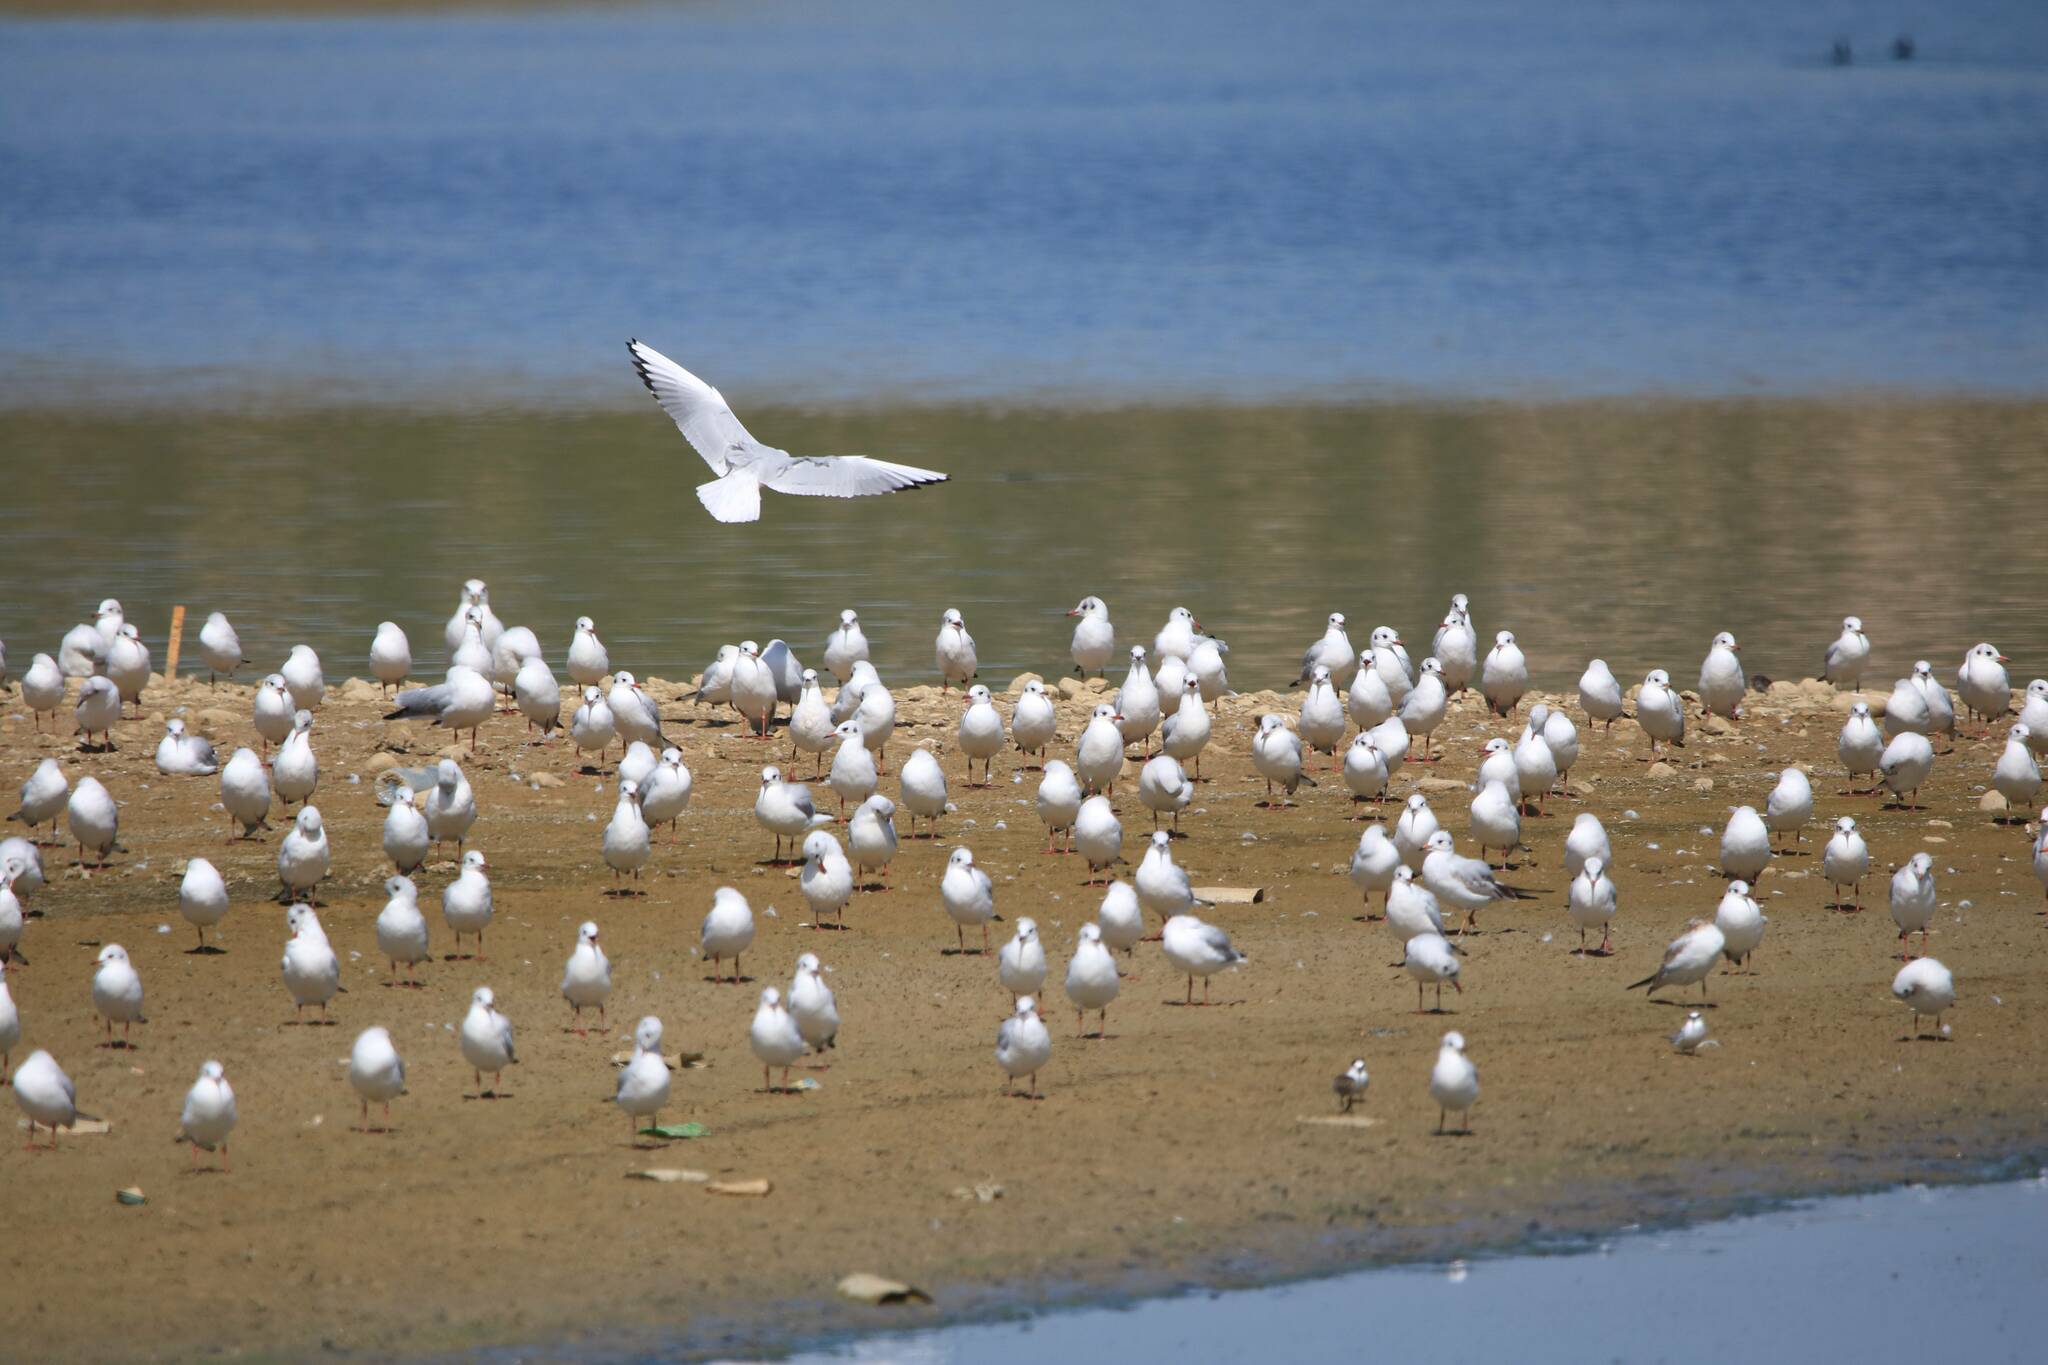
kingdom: Animalia
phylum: Chordata
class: Aves
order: Charadriiformes
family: Laridae
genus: Chroicocephalus
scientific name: Chroicocephalus ridibundus
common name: Black-headed gull
